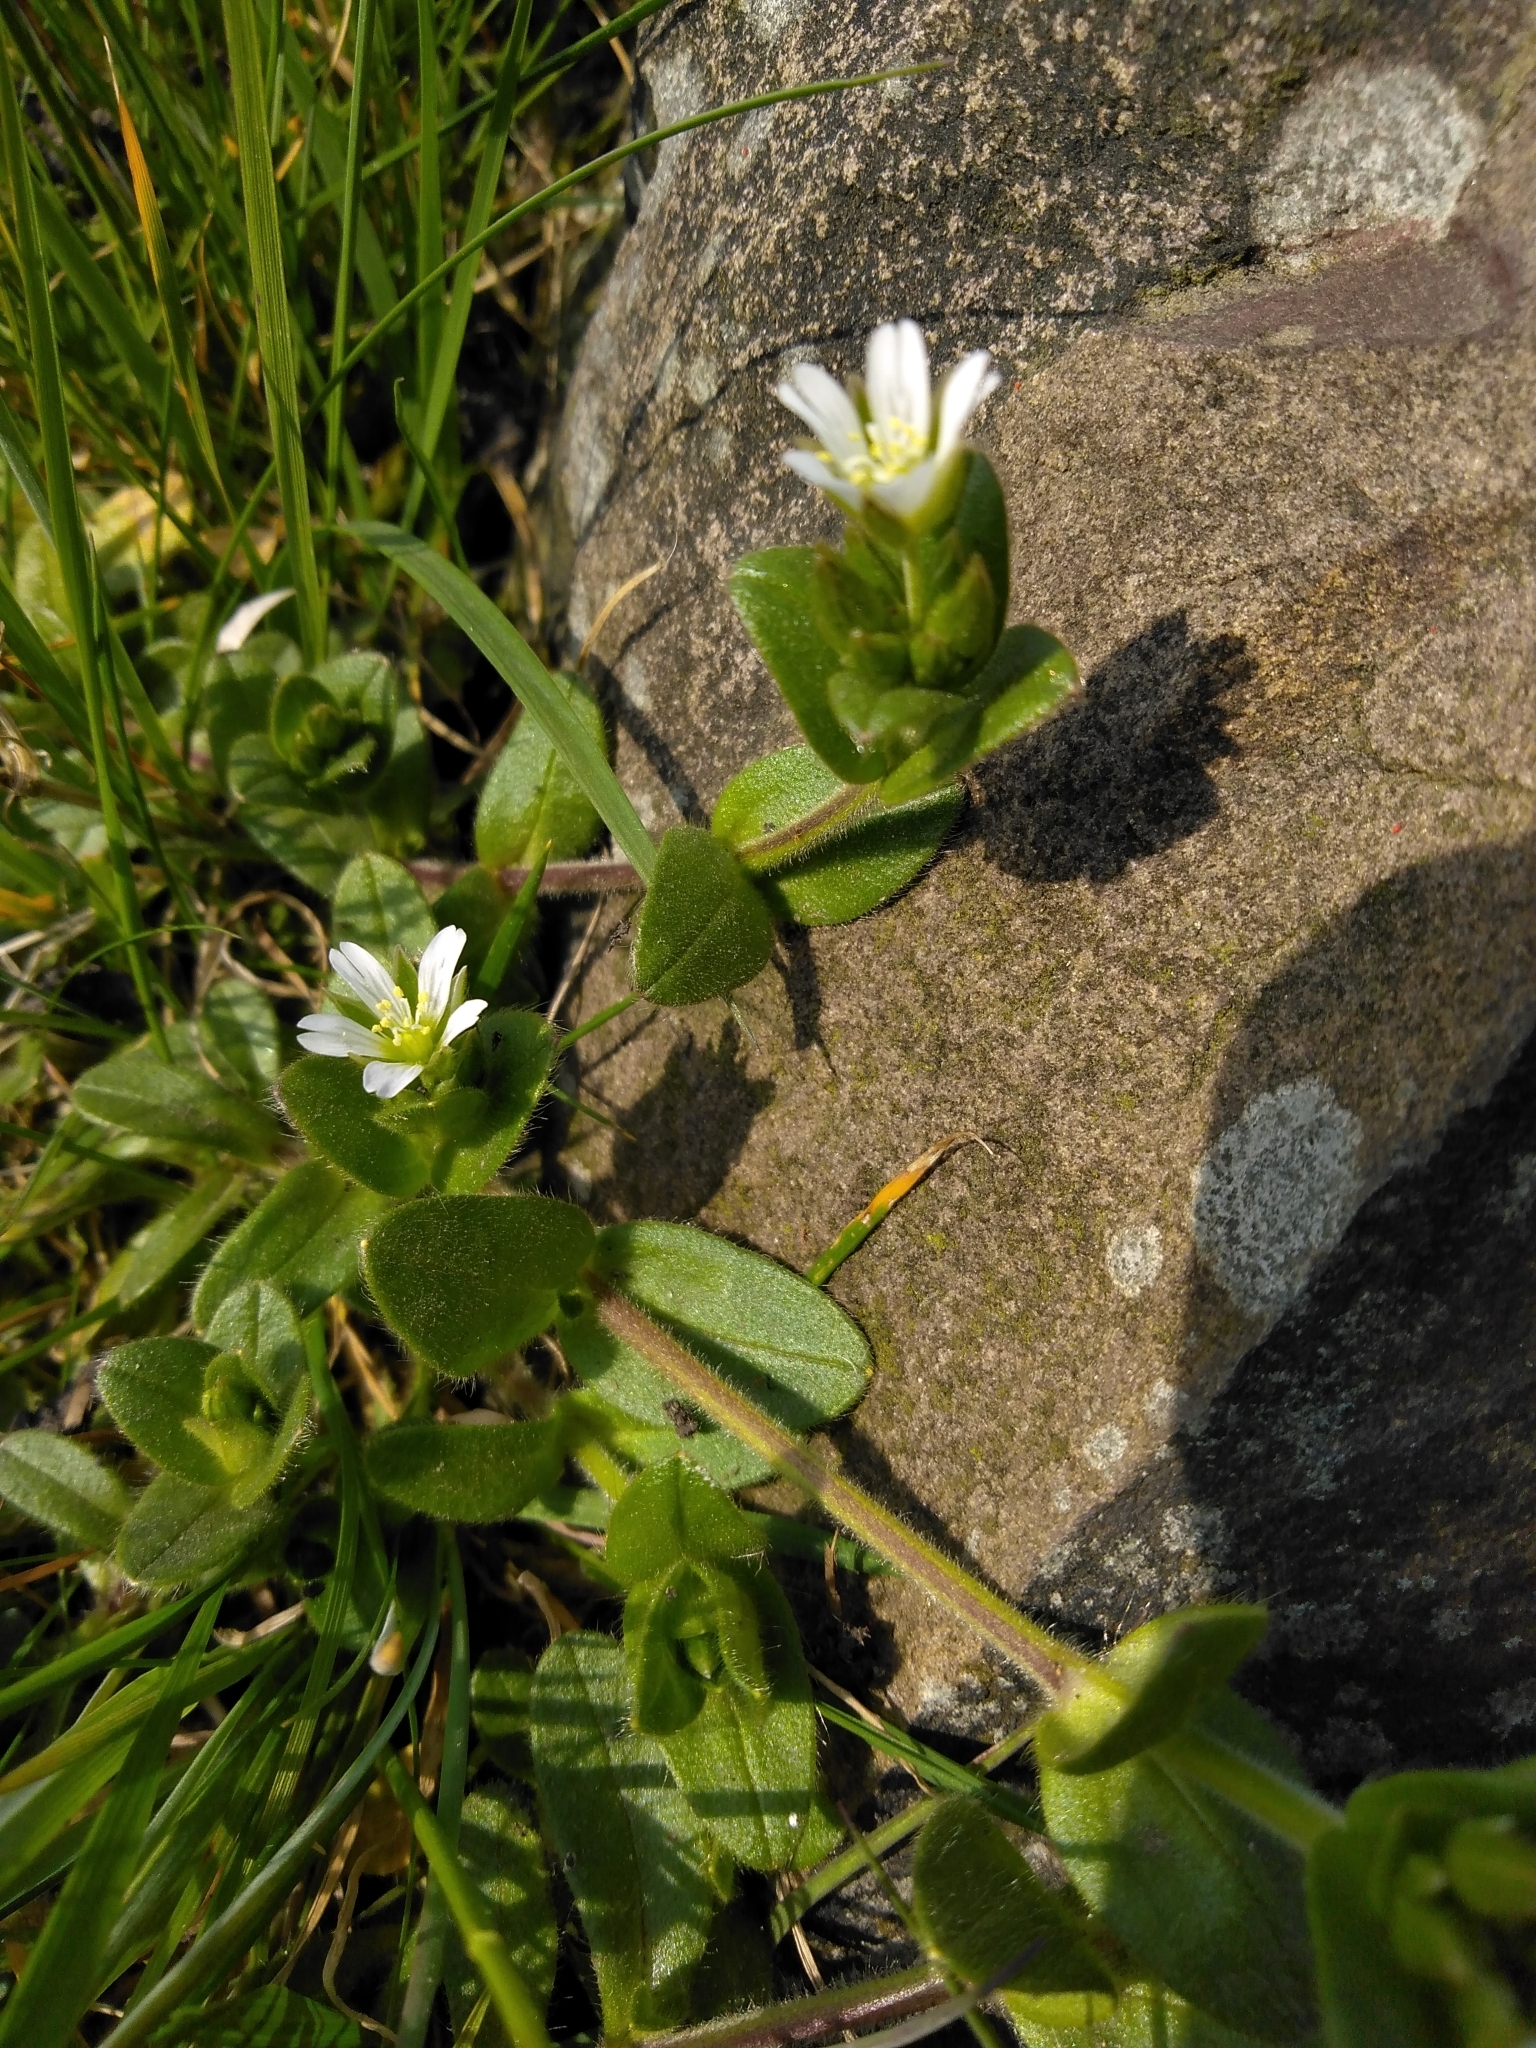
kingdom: Plantae
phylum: Tracheophyta
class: Magnoliopsida
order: Caryophyllales
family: Caryophyllaceae
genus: Cerastium
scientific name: Cerastium fontanum
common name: Common mouse-ear
